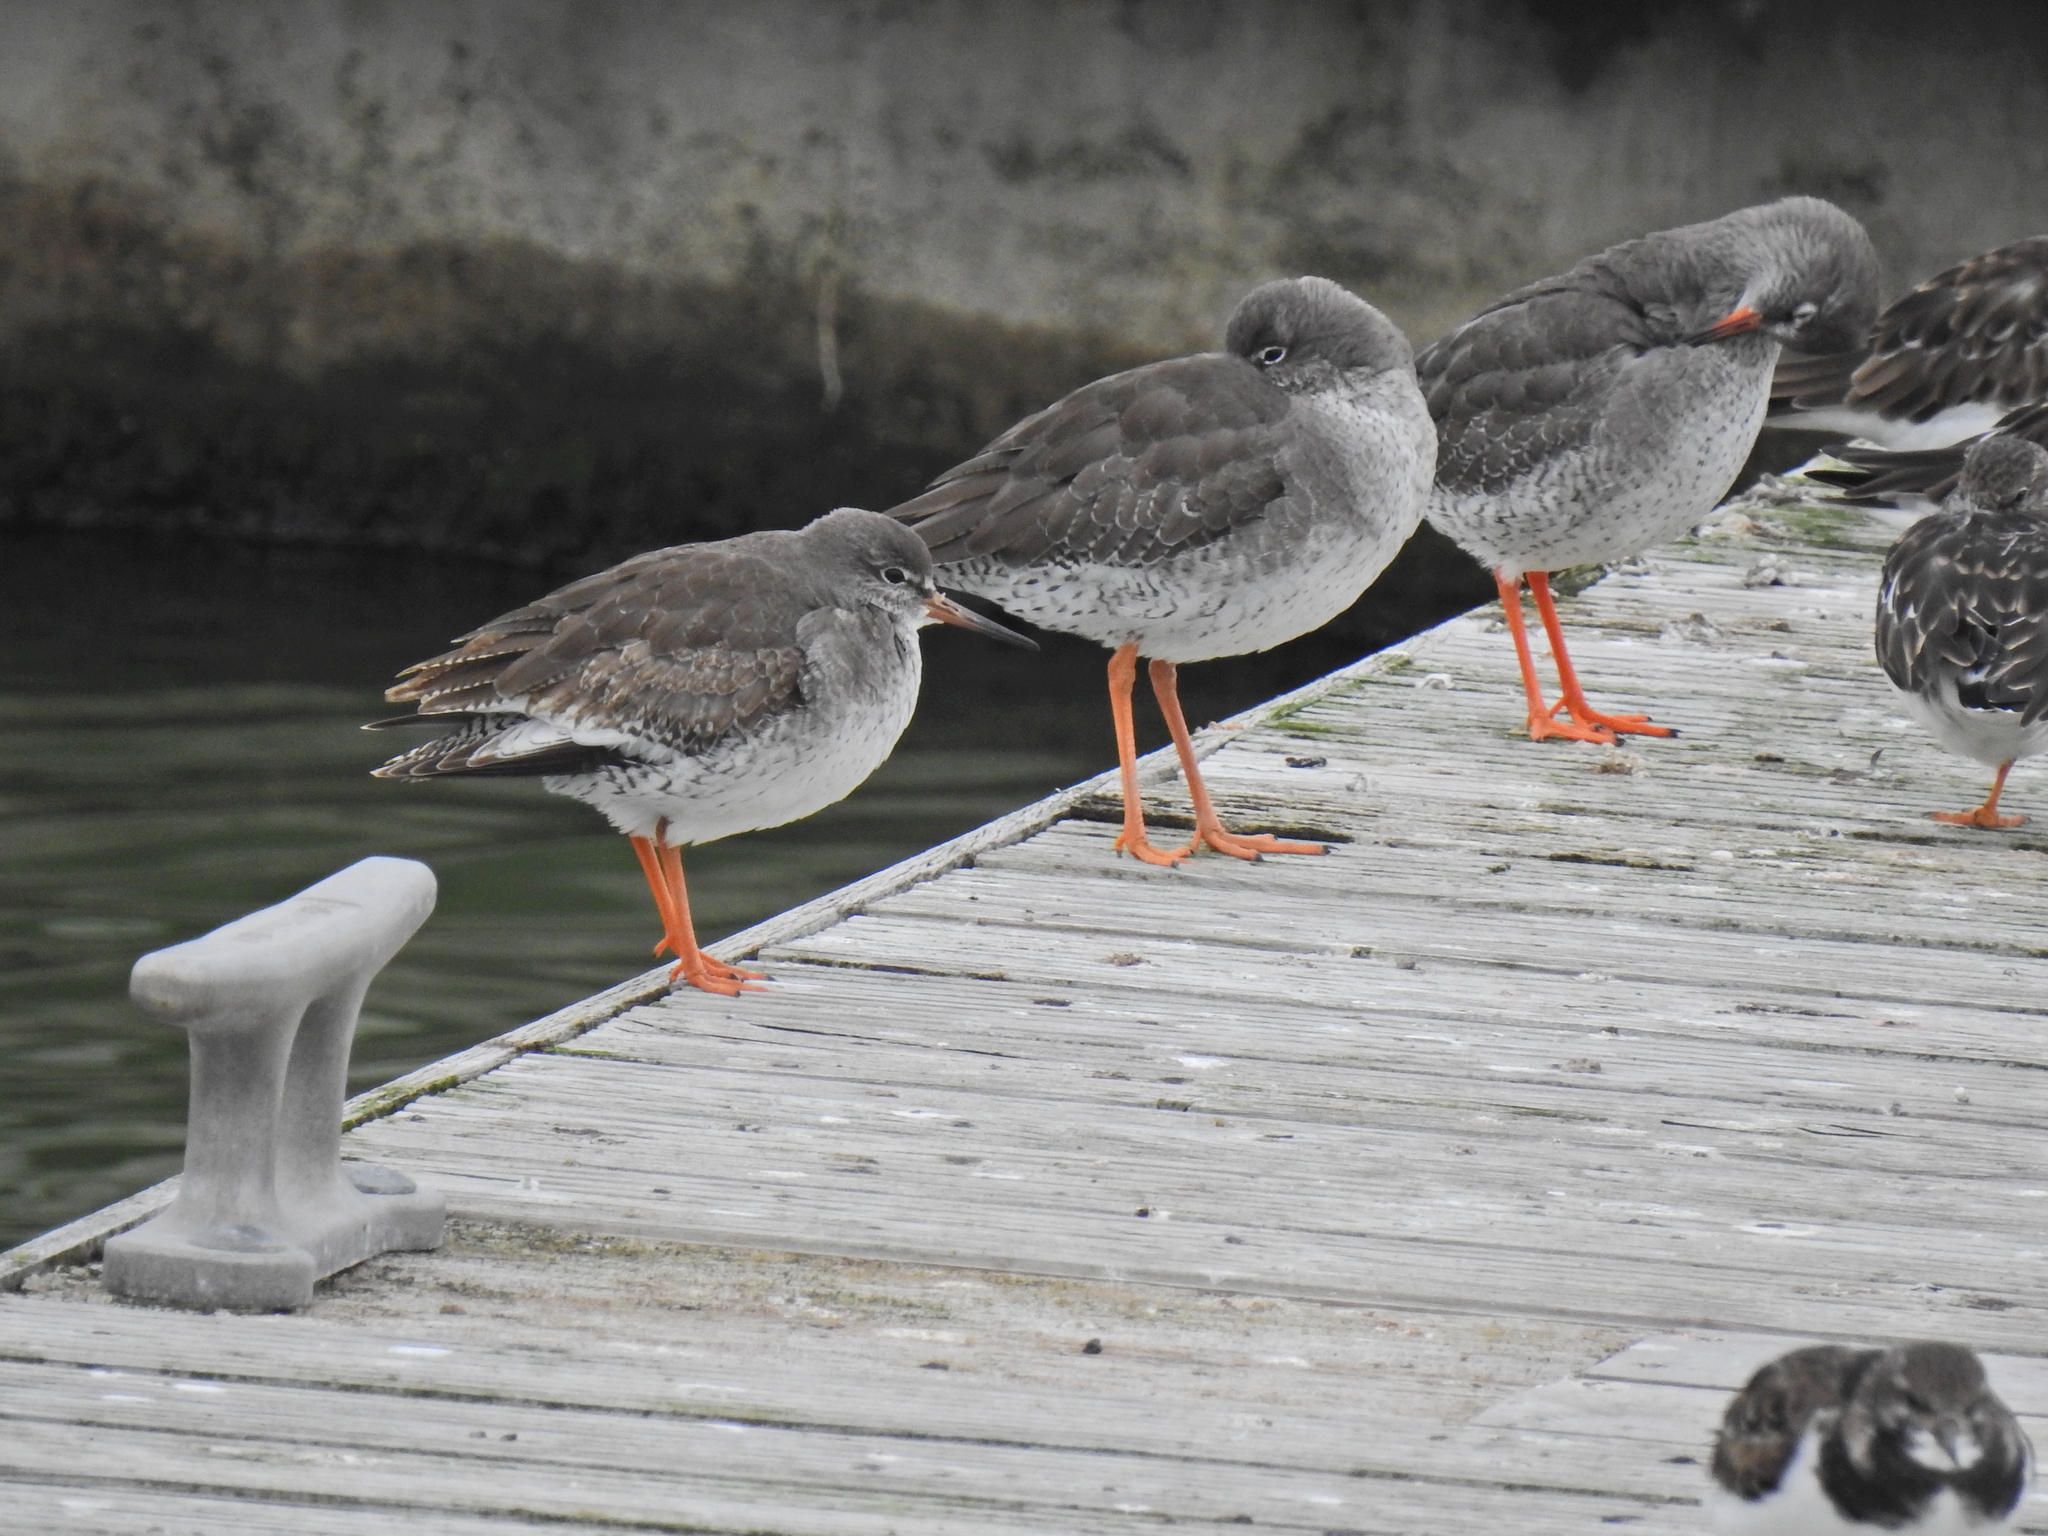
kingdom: Animalia
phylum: Chordata
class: Aves
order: Charadriiformes
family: Scolopacidae
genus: Tringa
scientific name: Tringa totanus
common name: Common redshank
